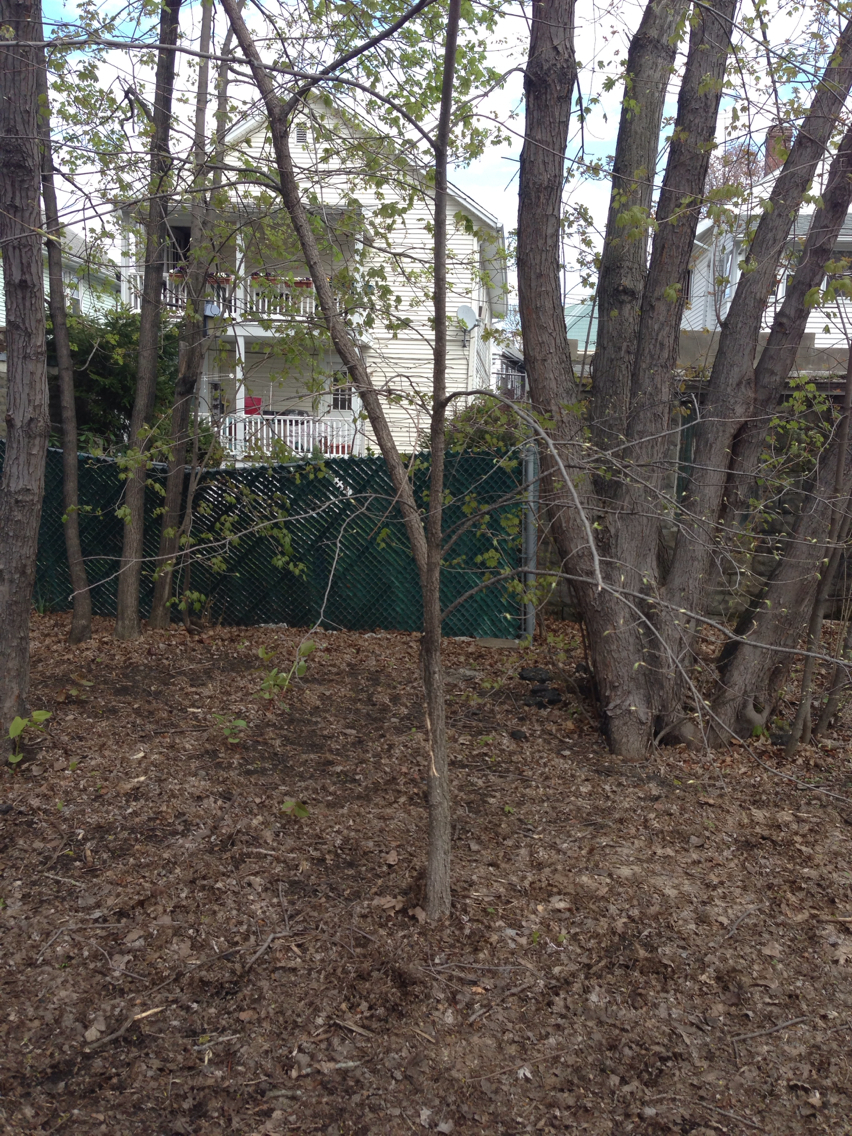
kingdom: Plantae
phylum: Tracheophyta
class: Magnoliopsida
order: Rosales
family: Ulmaceae
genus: Ulmus
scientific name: Ulmus americana
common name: American elm
